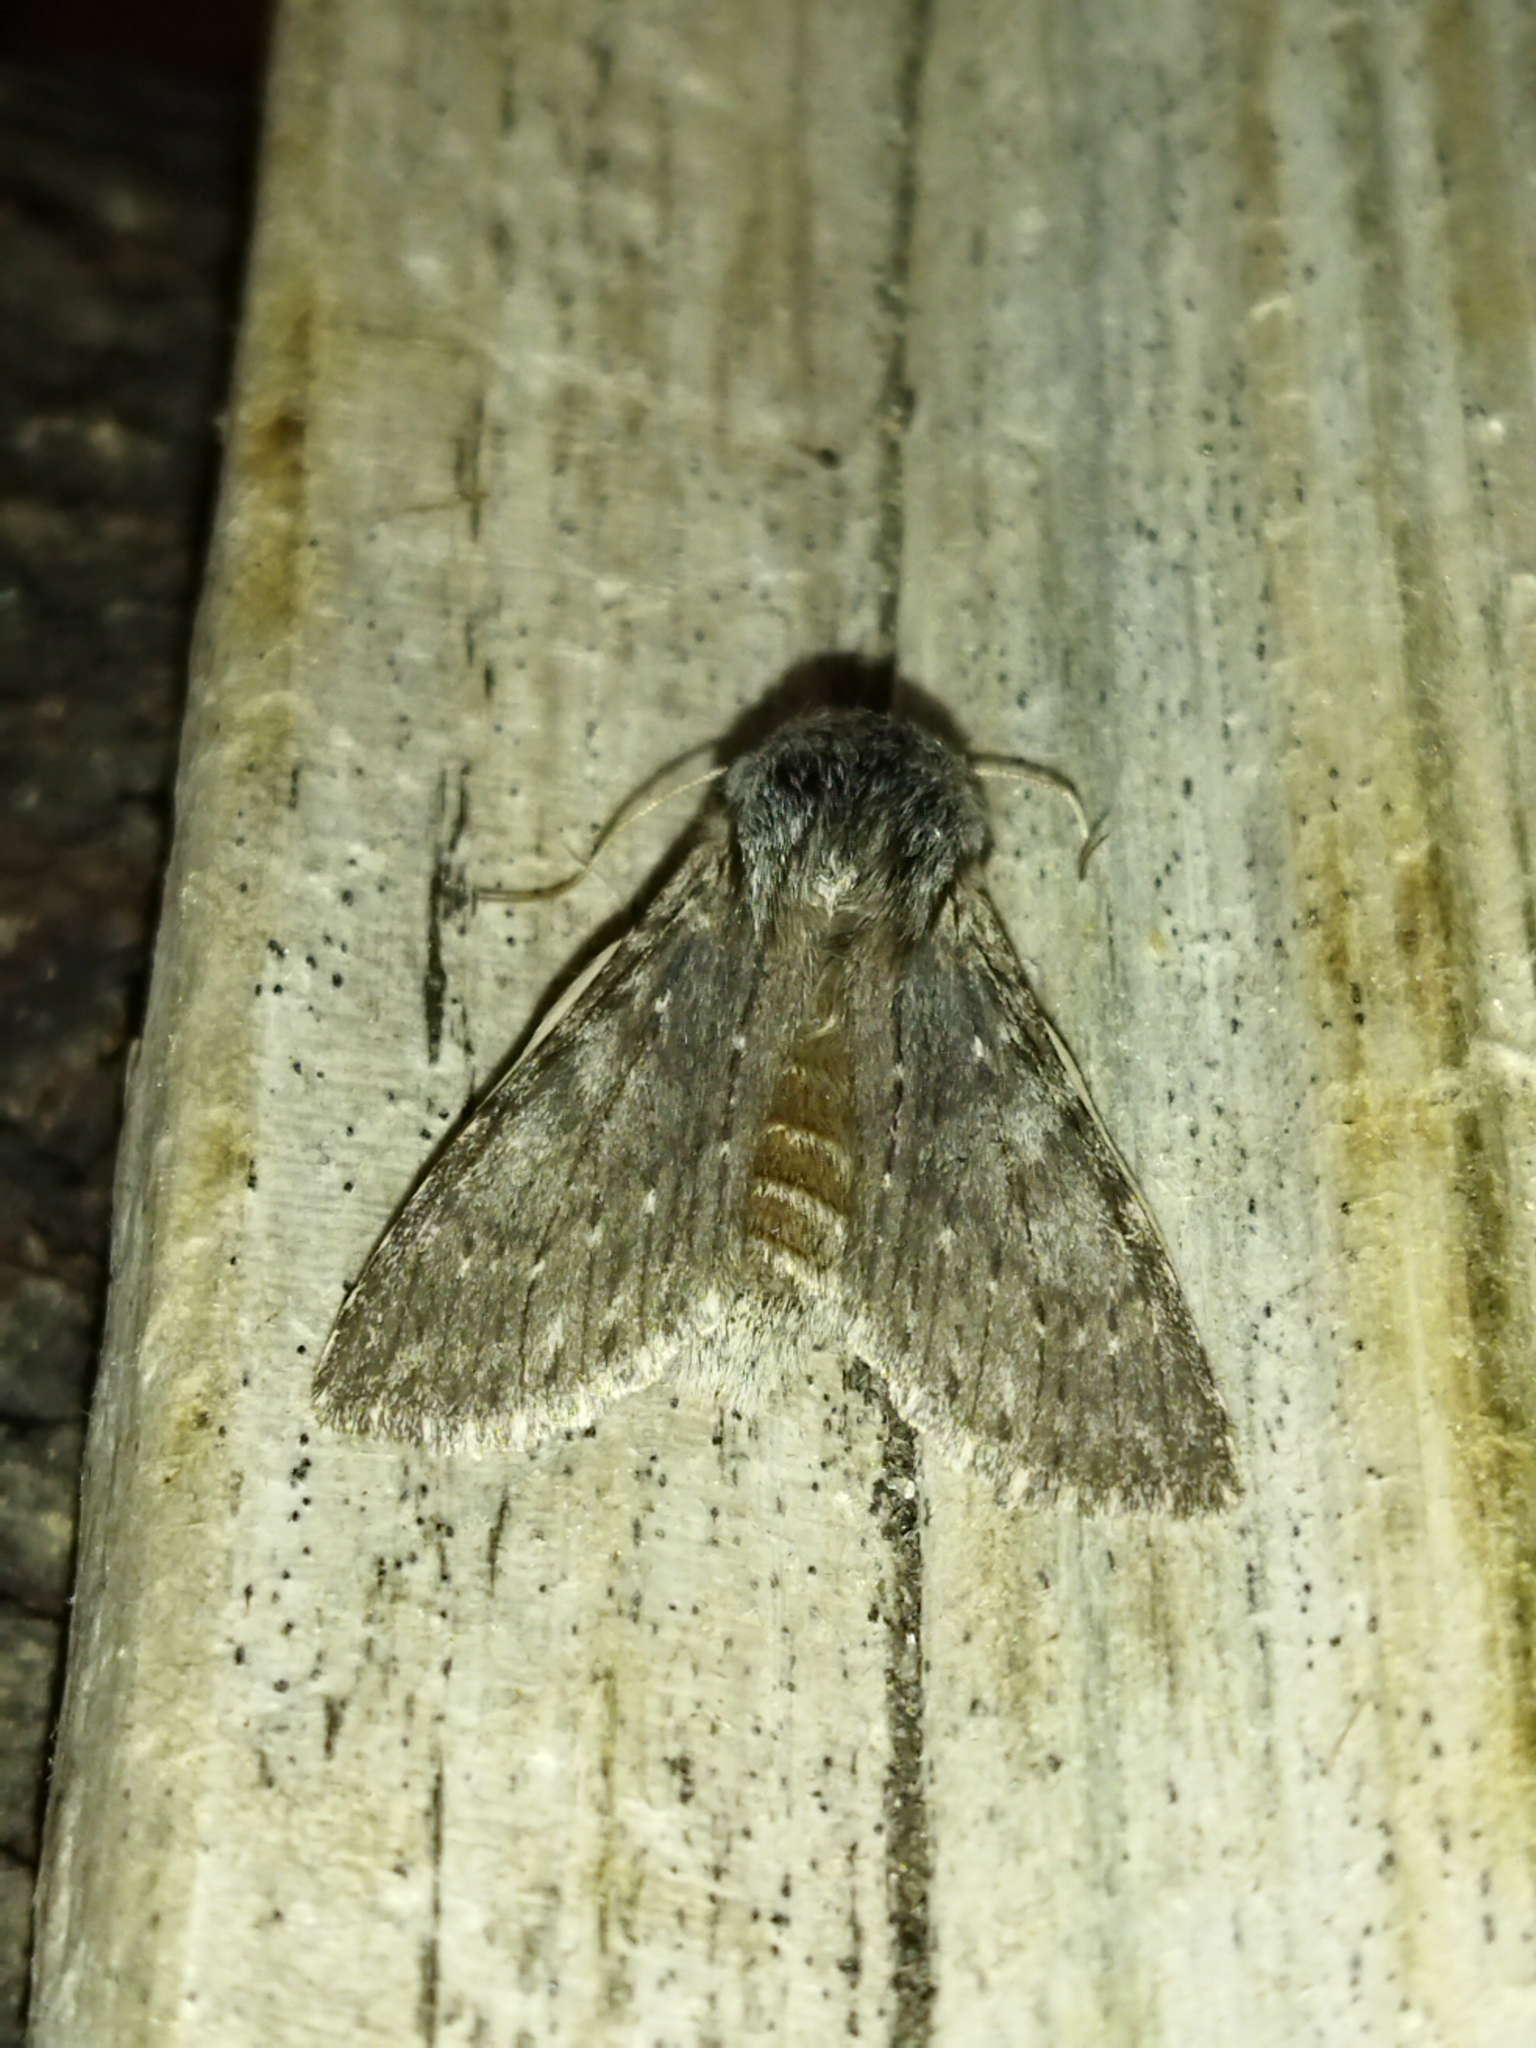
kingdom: Animalia
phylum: Arthropoda
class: Insecta
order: Lepidoptera
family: Notodontidae
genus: Dicranura
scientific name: Dicranura ulmi
